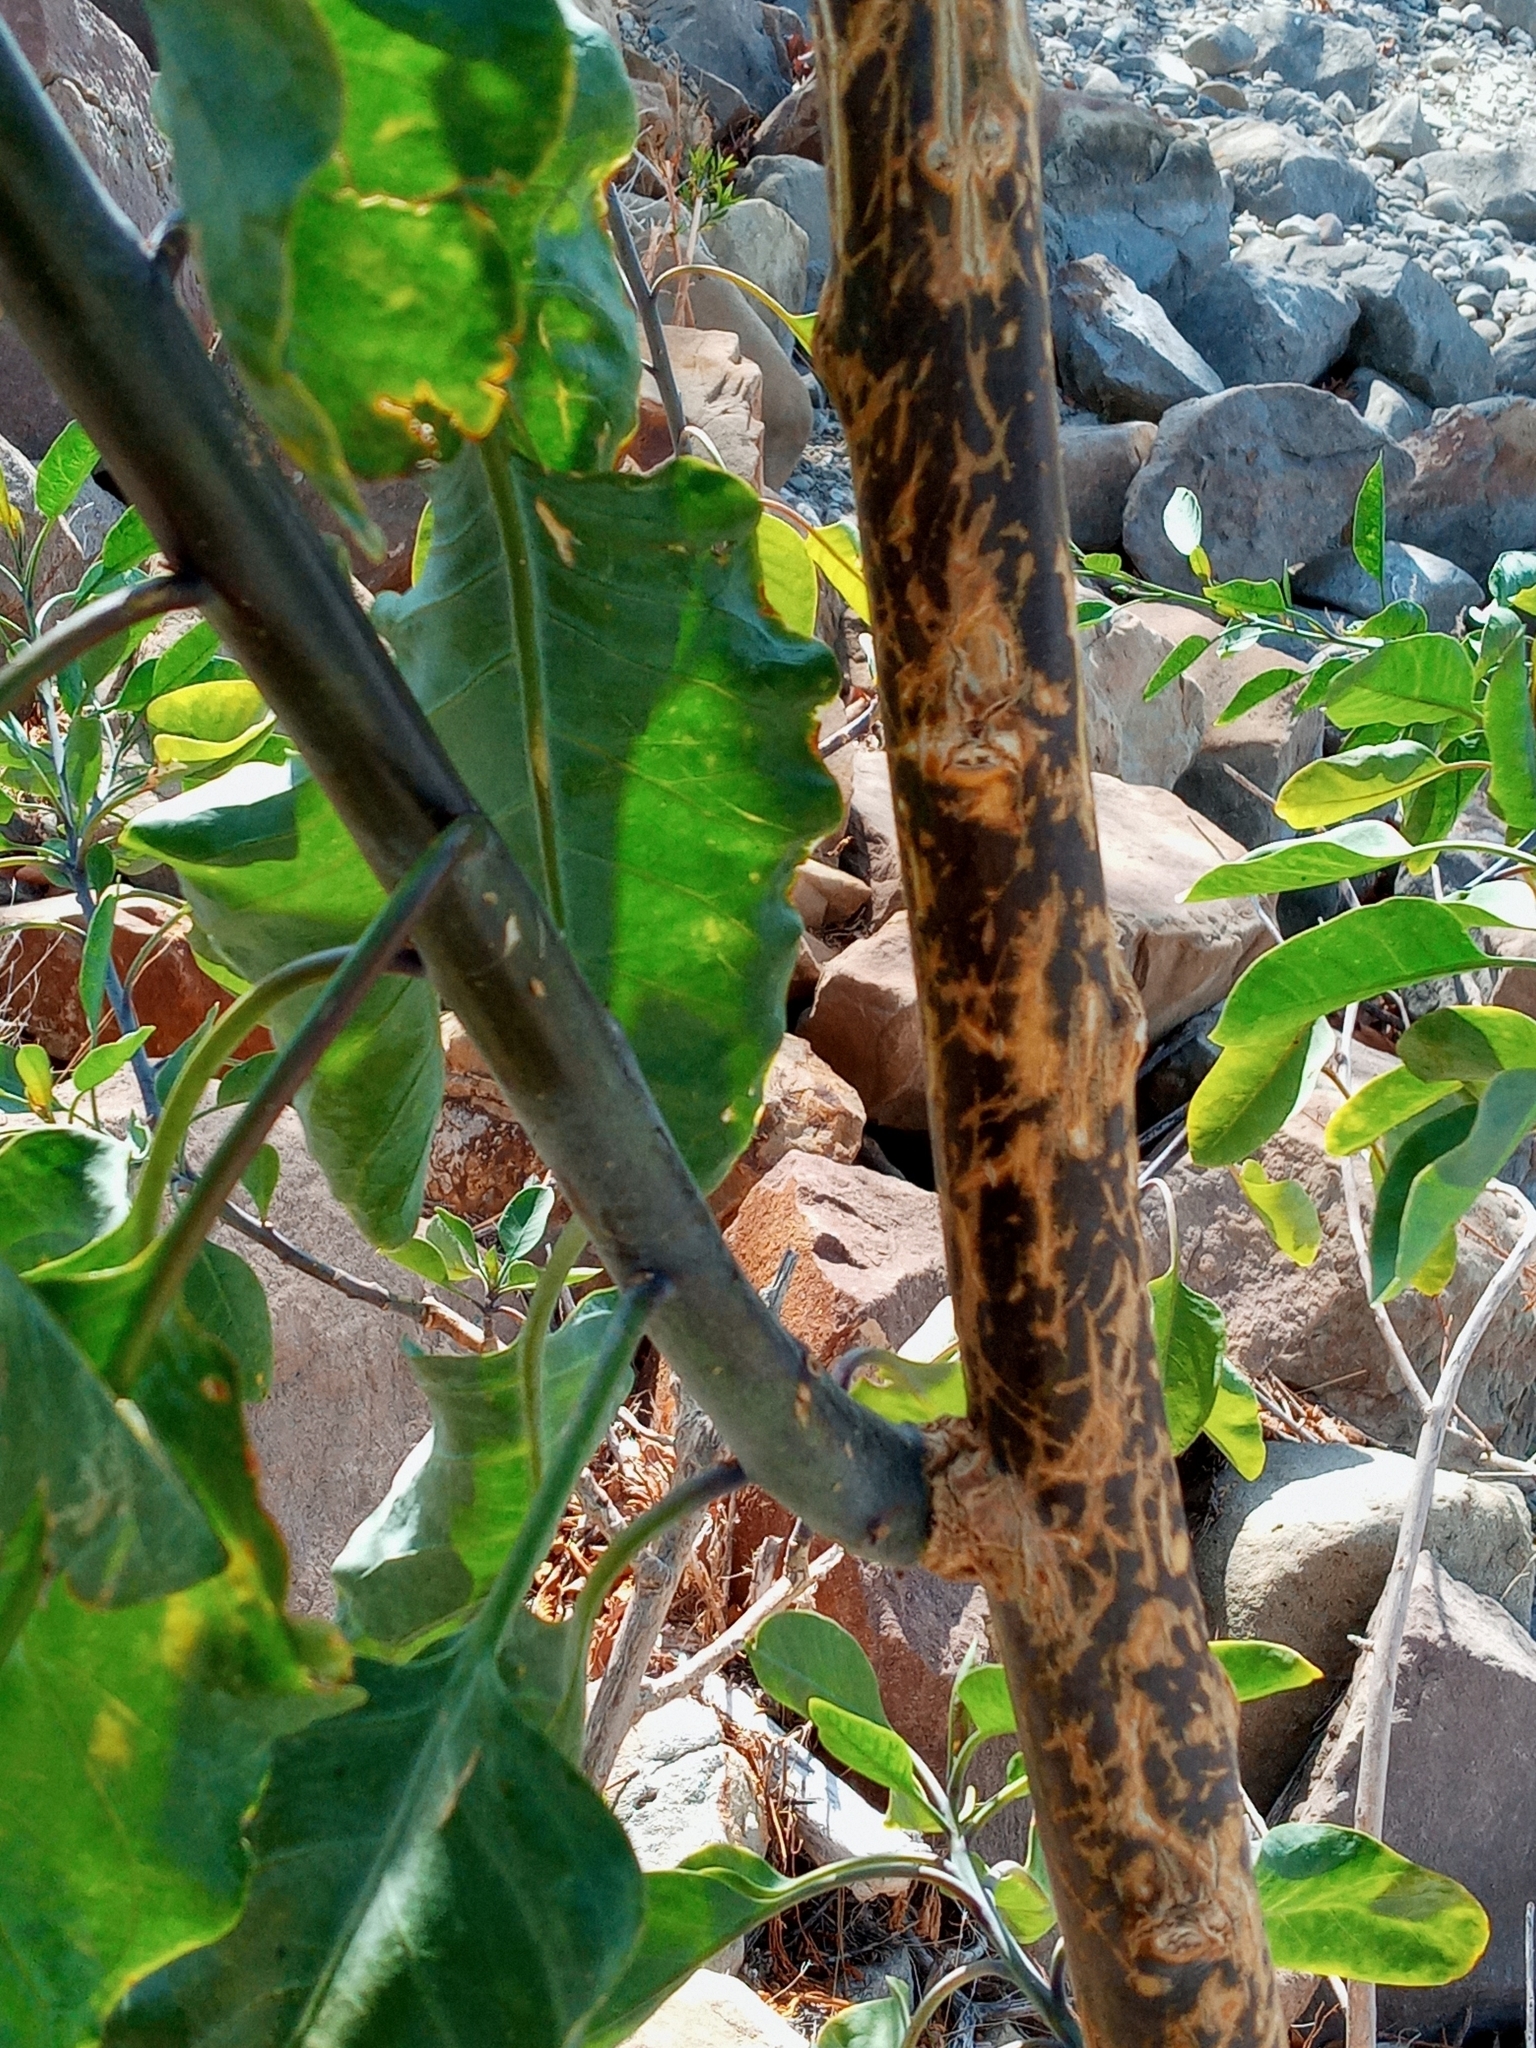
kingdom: Plantae
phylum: Tracheophyta
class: Magnoliopsida
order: Solanales
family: Solanaceae
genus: Nicotiana
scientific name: Nicotiana glauca
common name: Tree tobacco
